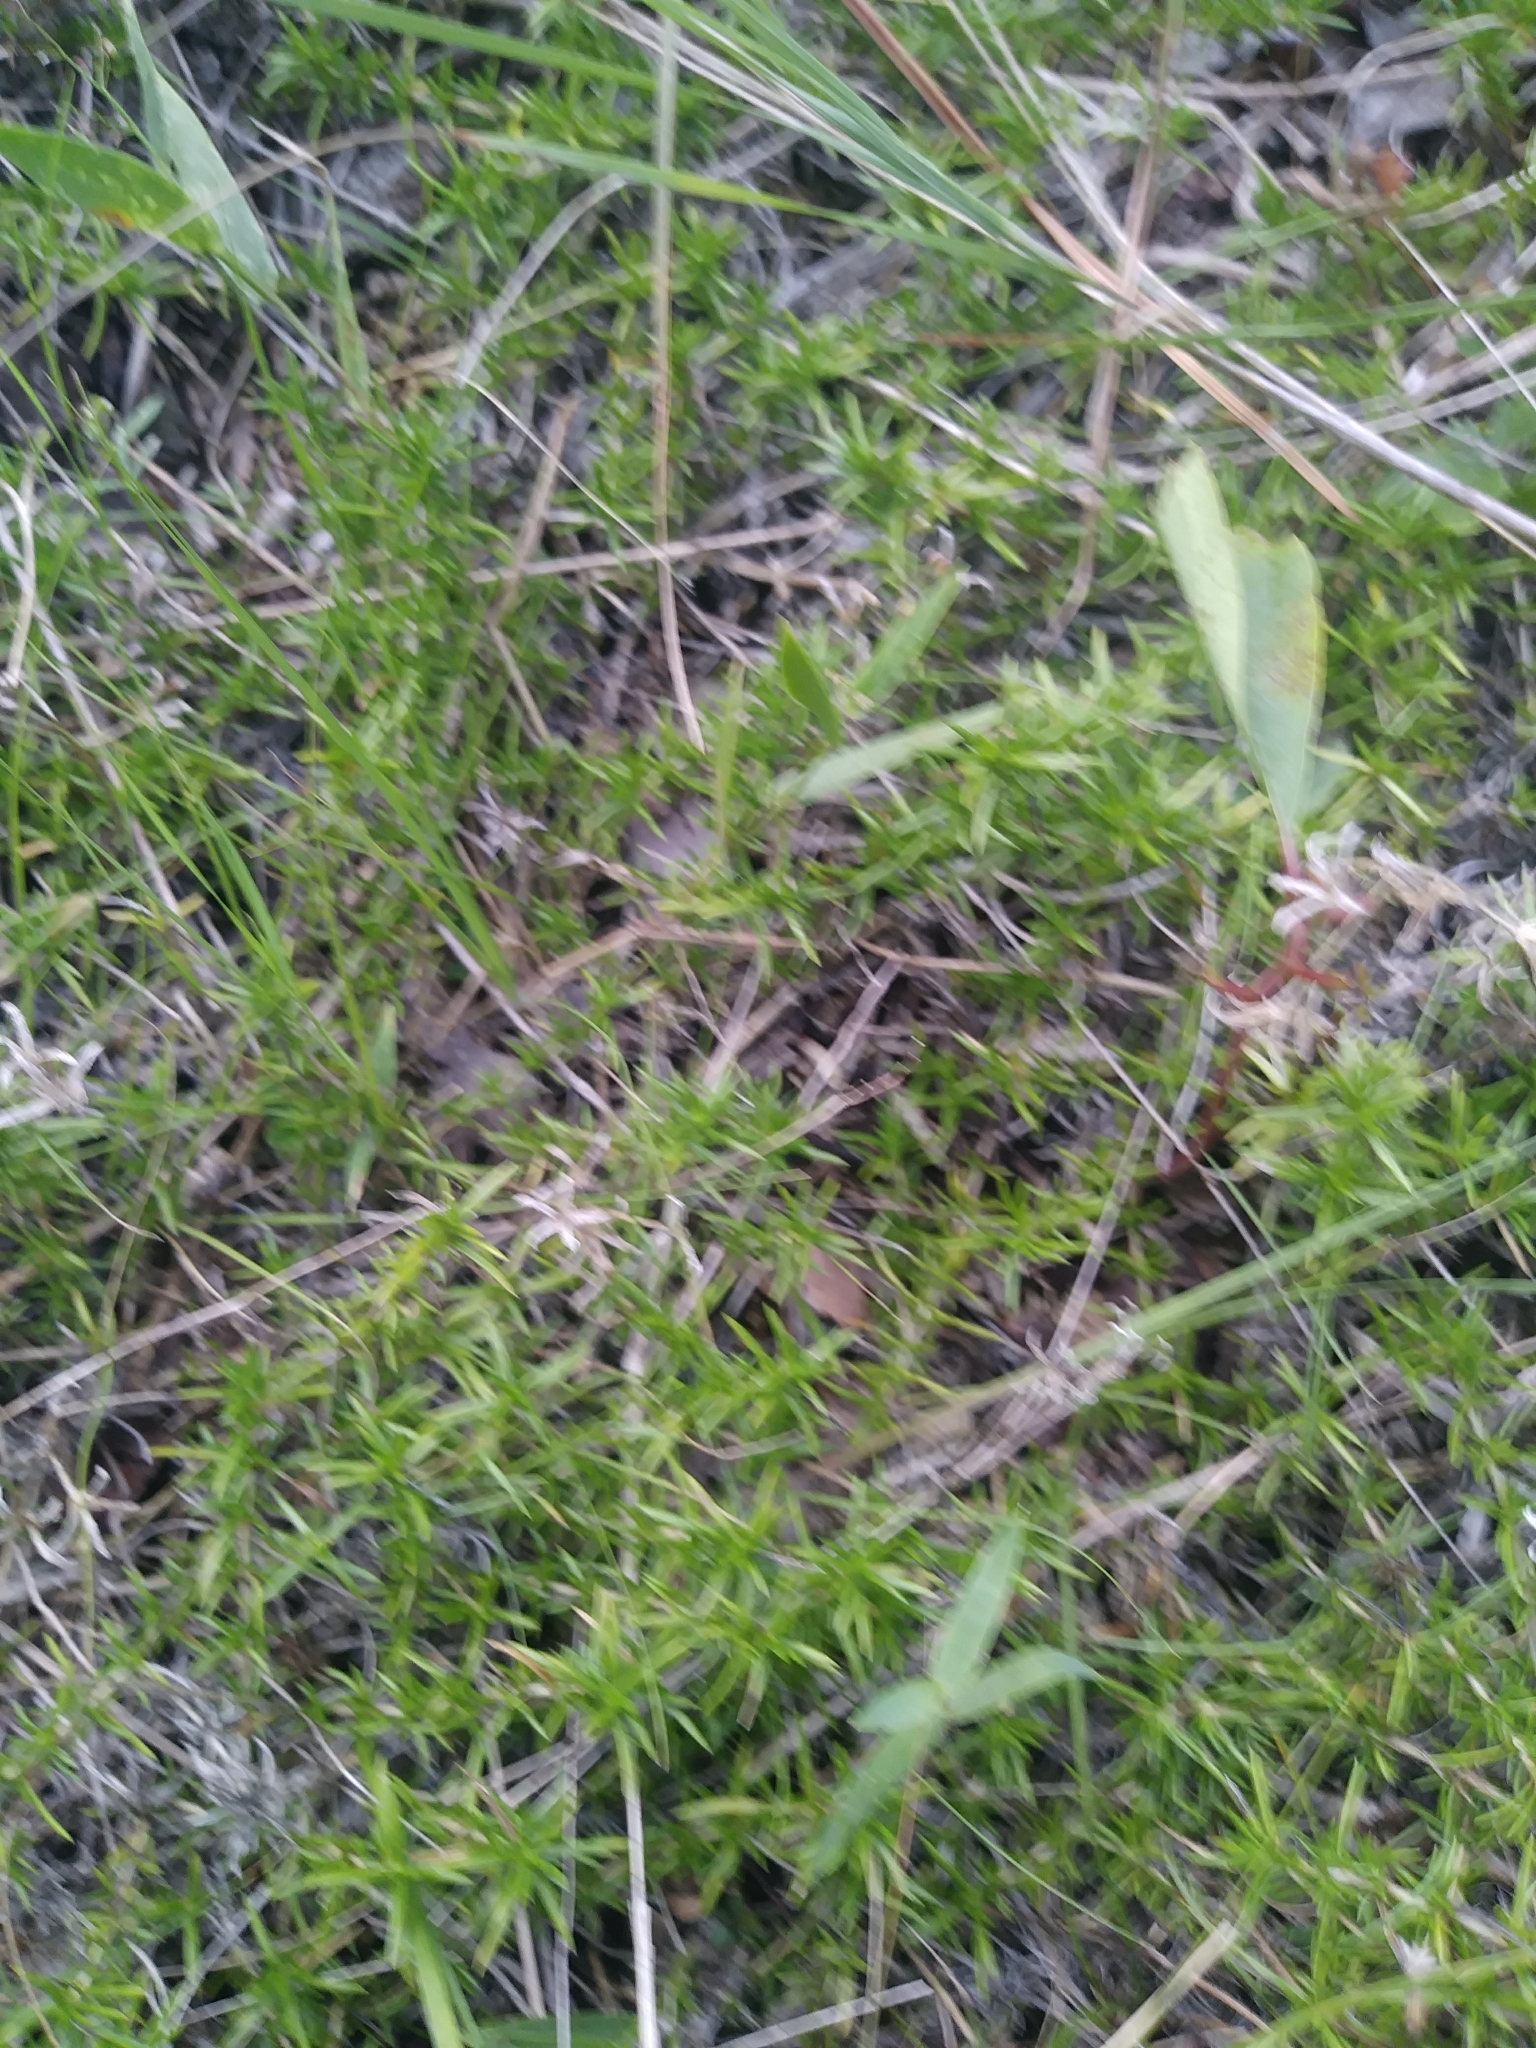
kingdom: Plantae
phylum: Tracheophyta
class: Magnoliopsida
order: Ericales
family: Polemoniaceae
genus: Phlox
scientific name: Phlox subulata
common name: Moss phlox
